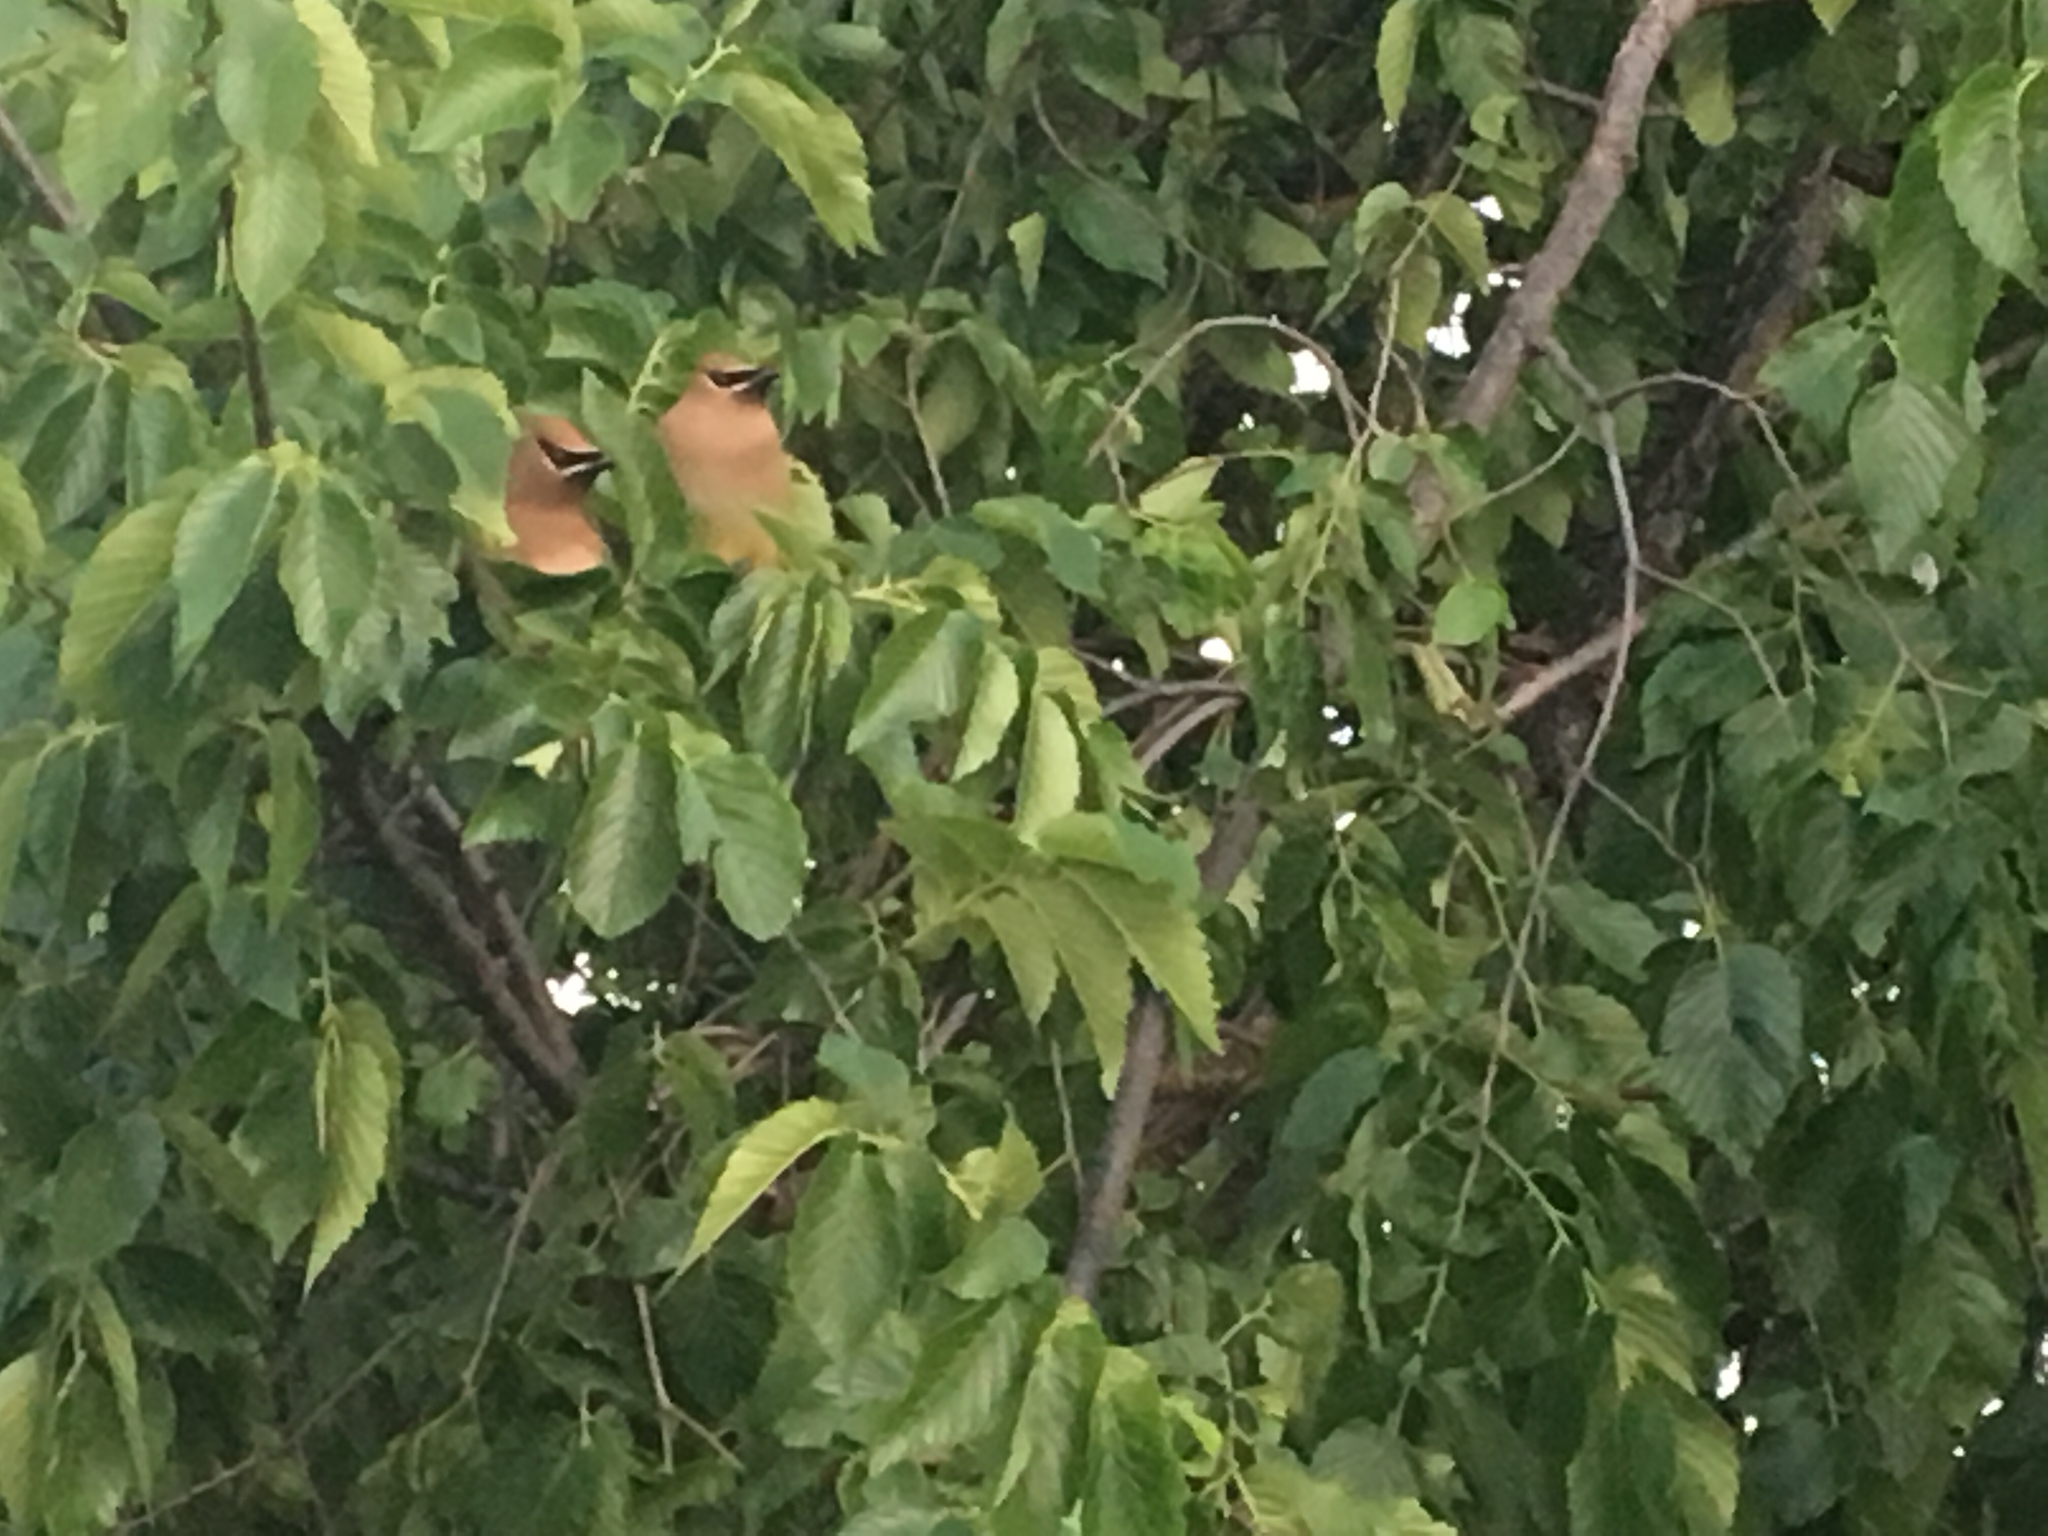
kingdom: Animalia
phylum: Chordata
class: Aves
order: Passeriformes
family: Bombycillidae
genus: Bombycilla
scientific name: Bombycilla cedrorum
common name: Cedar waxwing
